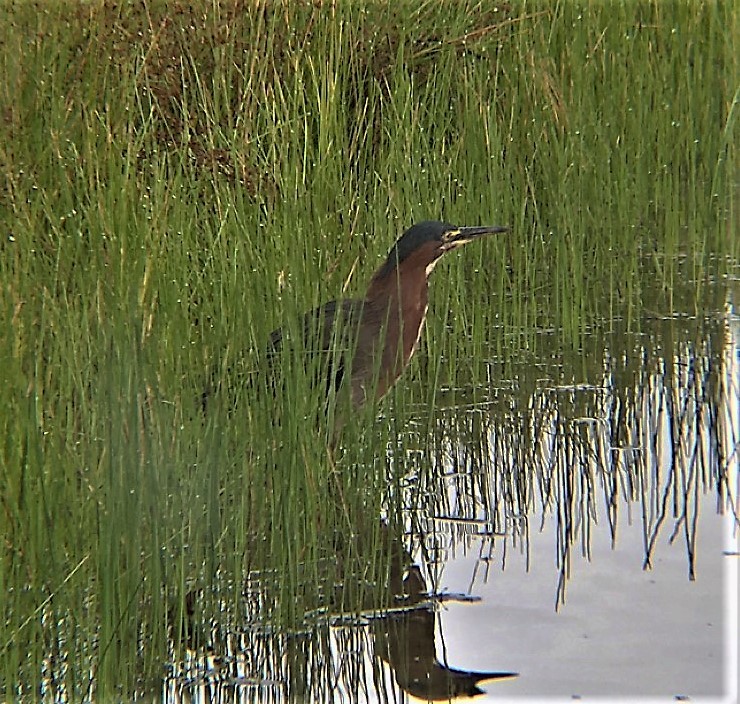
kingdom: Animalia
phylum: Chordata
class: Aves
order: Pelecaniformes
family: Ardeidae
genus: Butorides
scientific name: Butorides virescens
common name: Green heron
